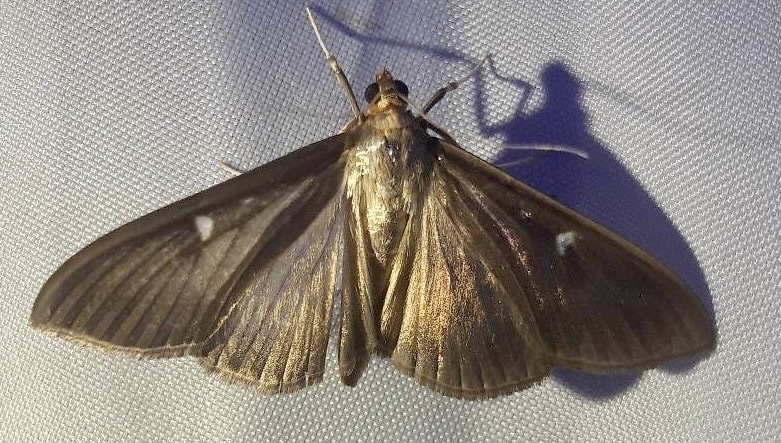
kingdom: Animalia
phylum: Arthropoda
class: Insecta
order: Lepidoptera
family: Crambidae
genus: Cydalima
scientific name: Cydalima perspectalis
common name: Box tree moth
